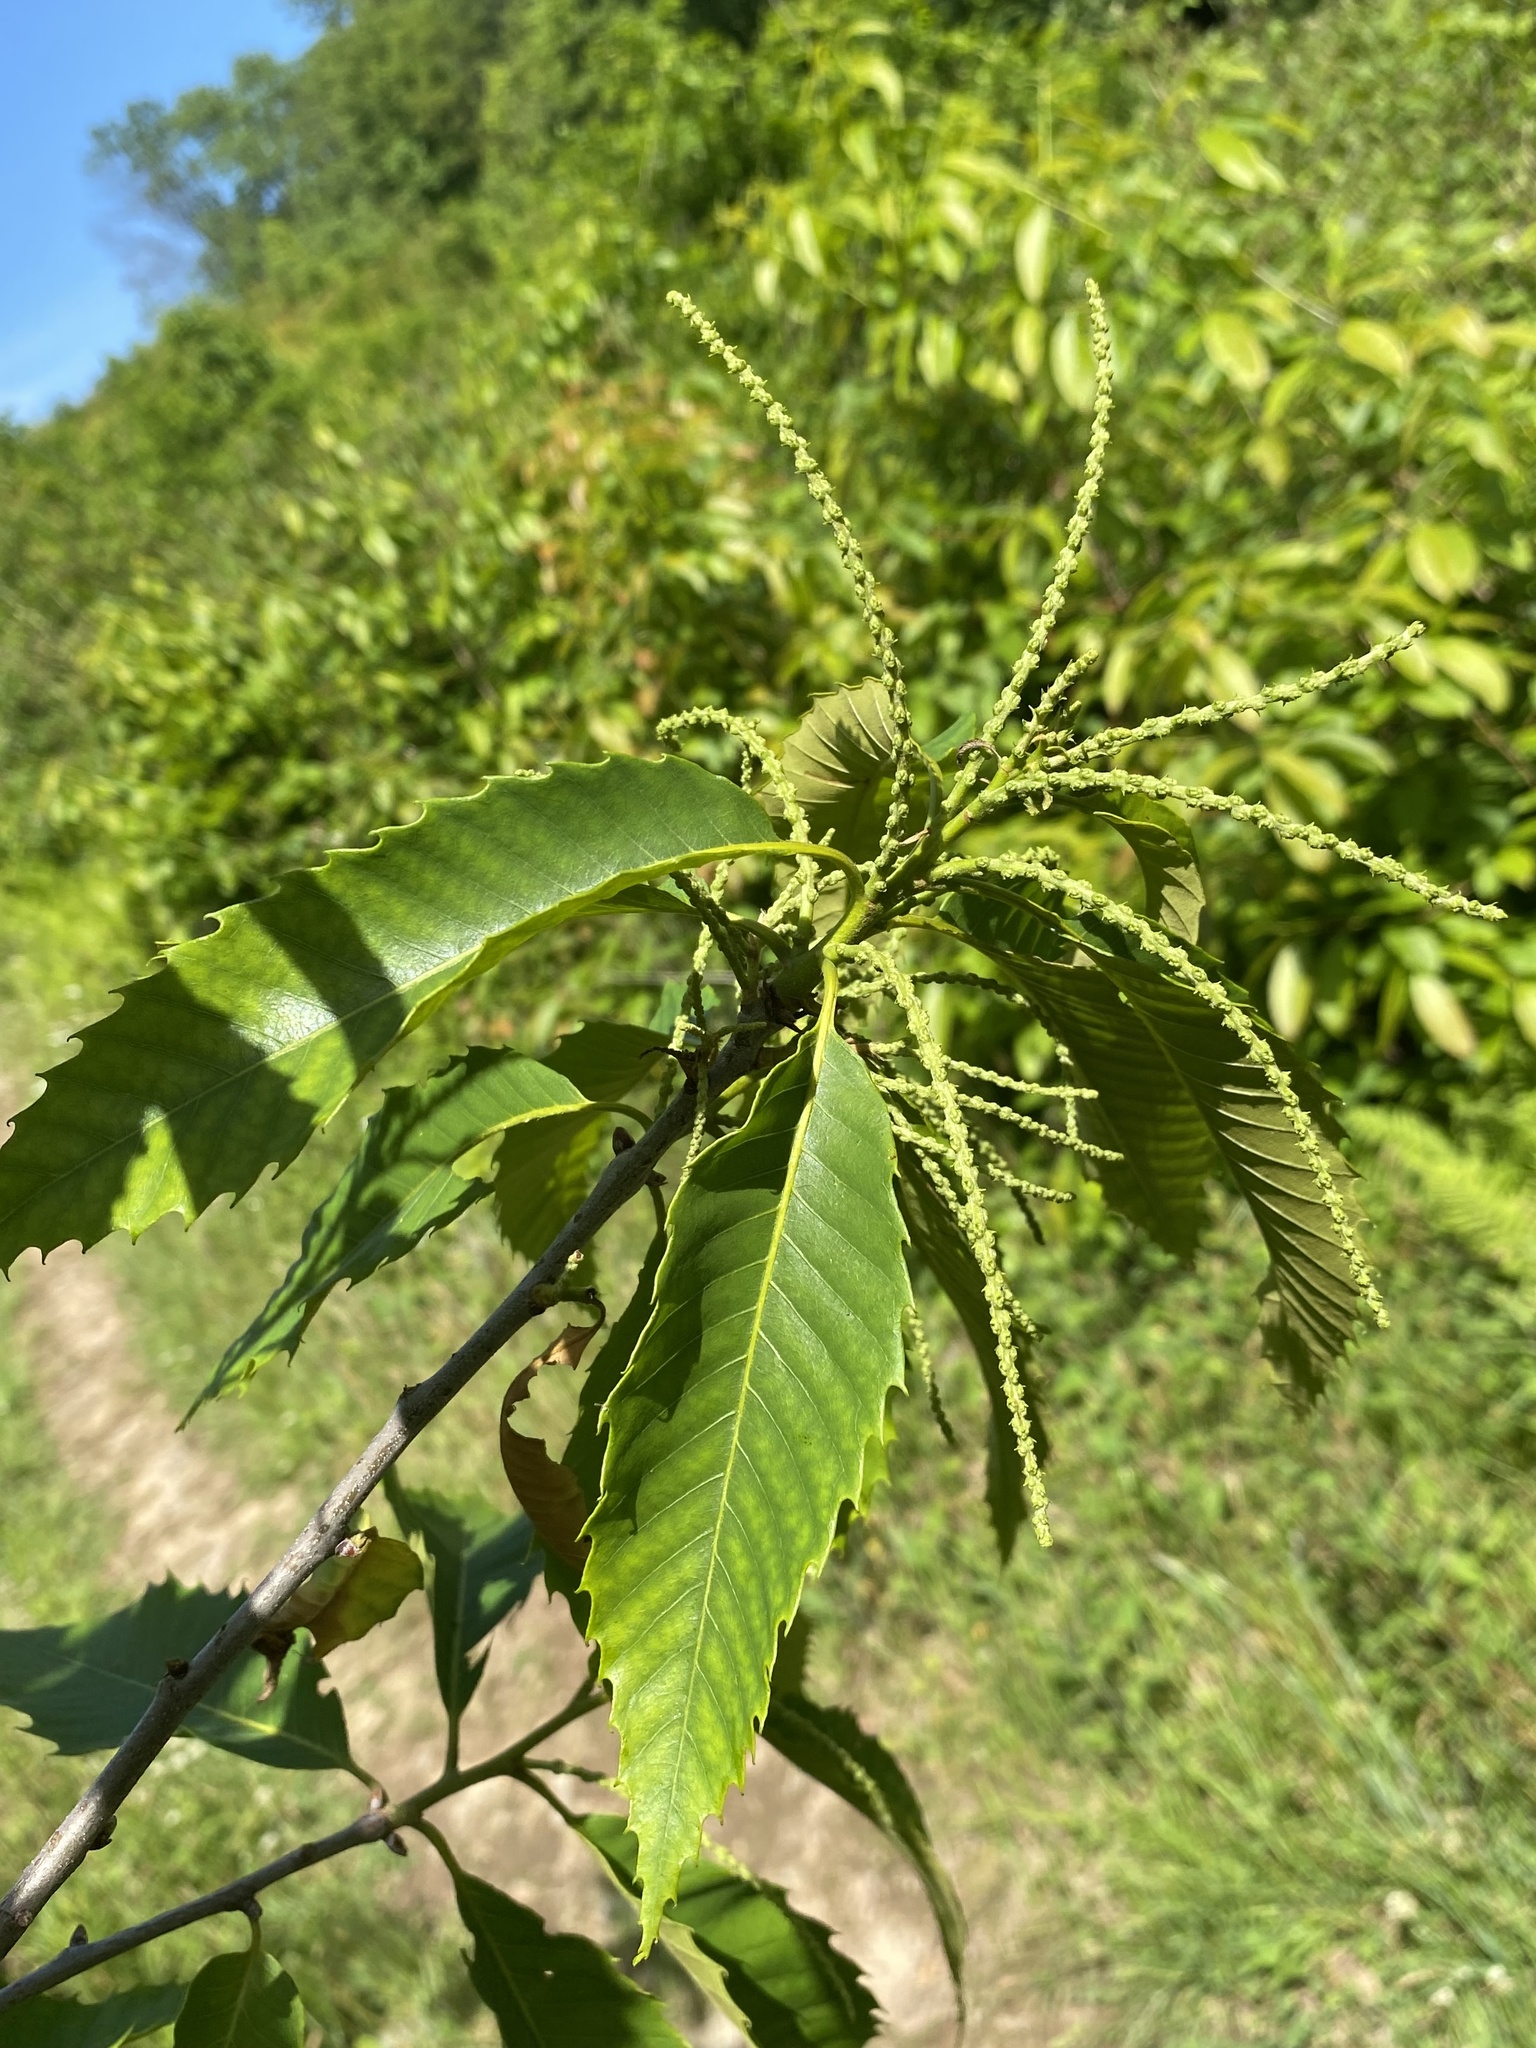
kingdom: Plantae
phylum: Tracheophyta
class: Magnoliopsida
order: Fagales
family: Fagaceae
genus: Castanea
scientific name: Castanea dentata
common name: American chestnut
